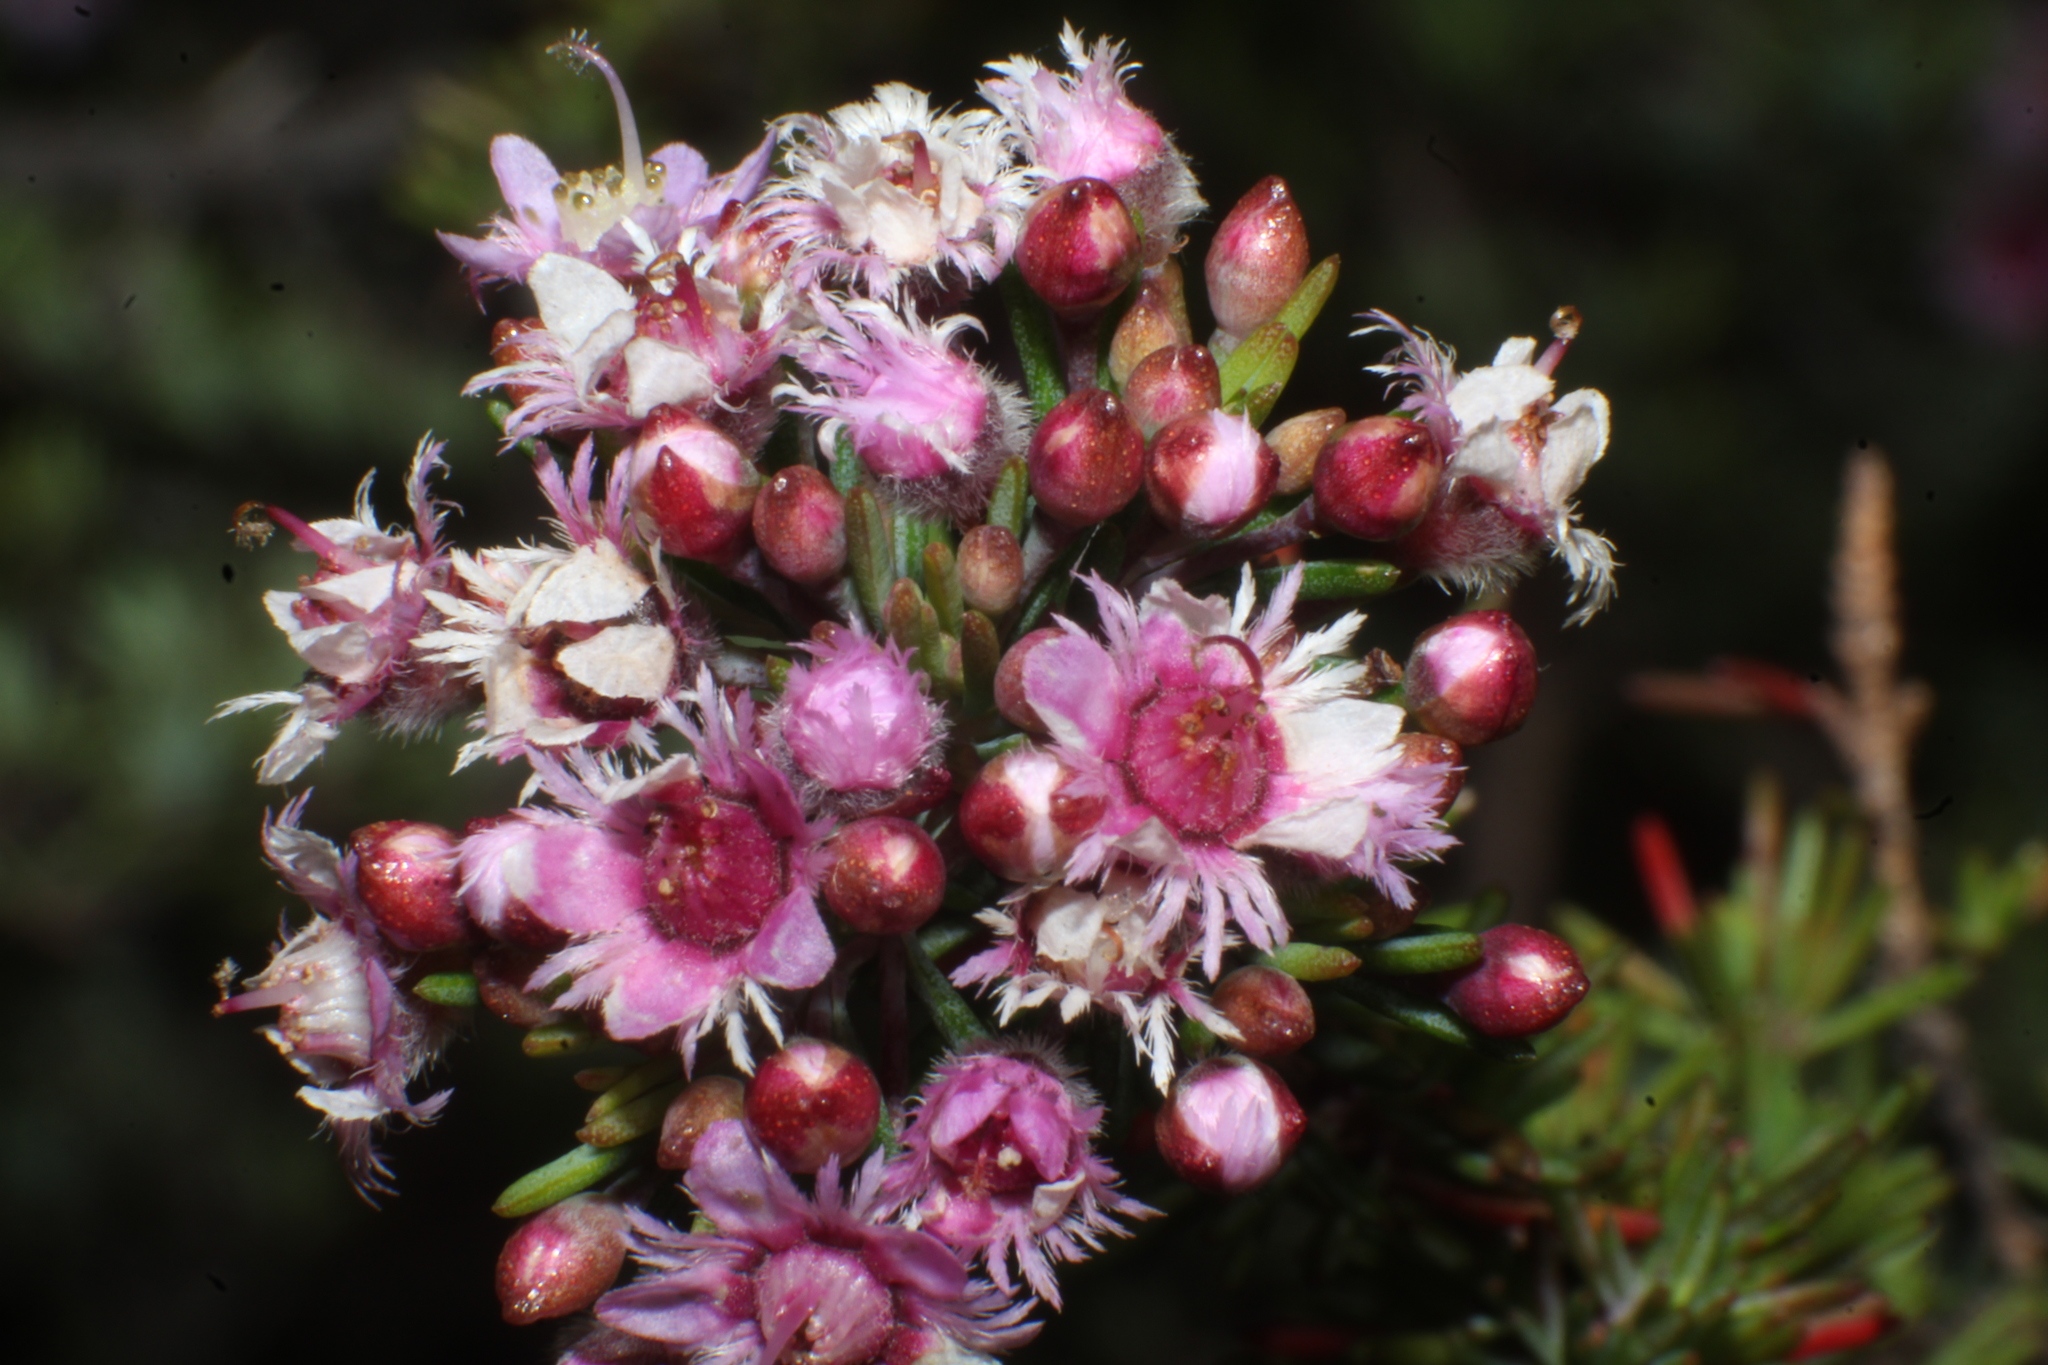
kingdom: Plantae
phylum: Tracheophyta
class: Magnoliopsida
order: Myrtales
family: Myrtaceae
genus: Verticordia
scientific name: Verticordia plumosa
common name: Plume feather-flower
